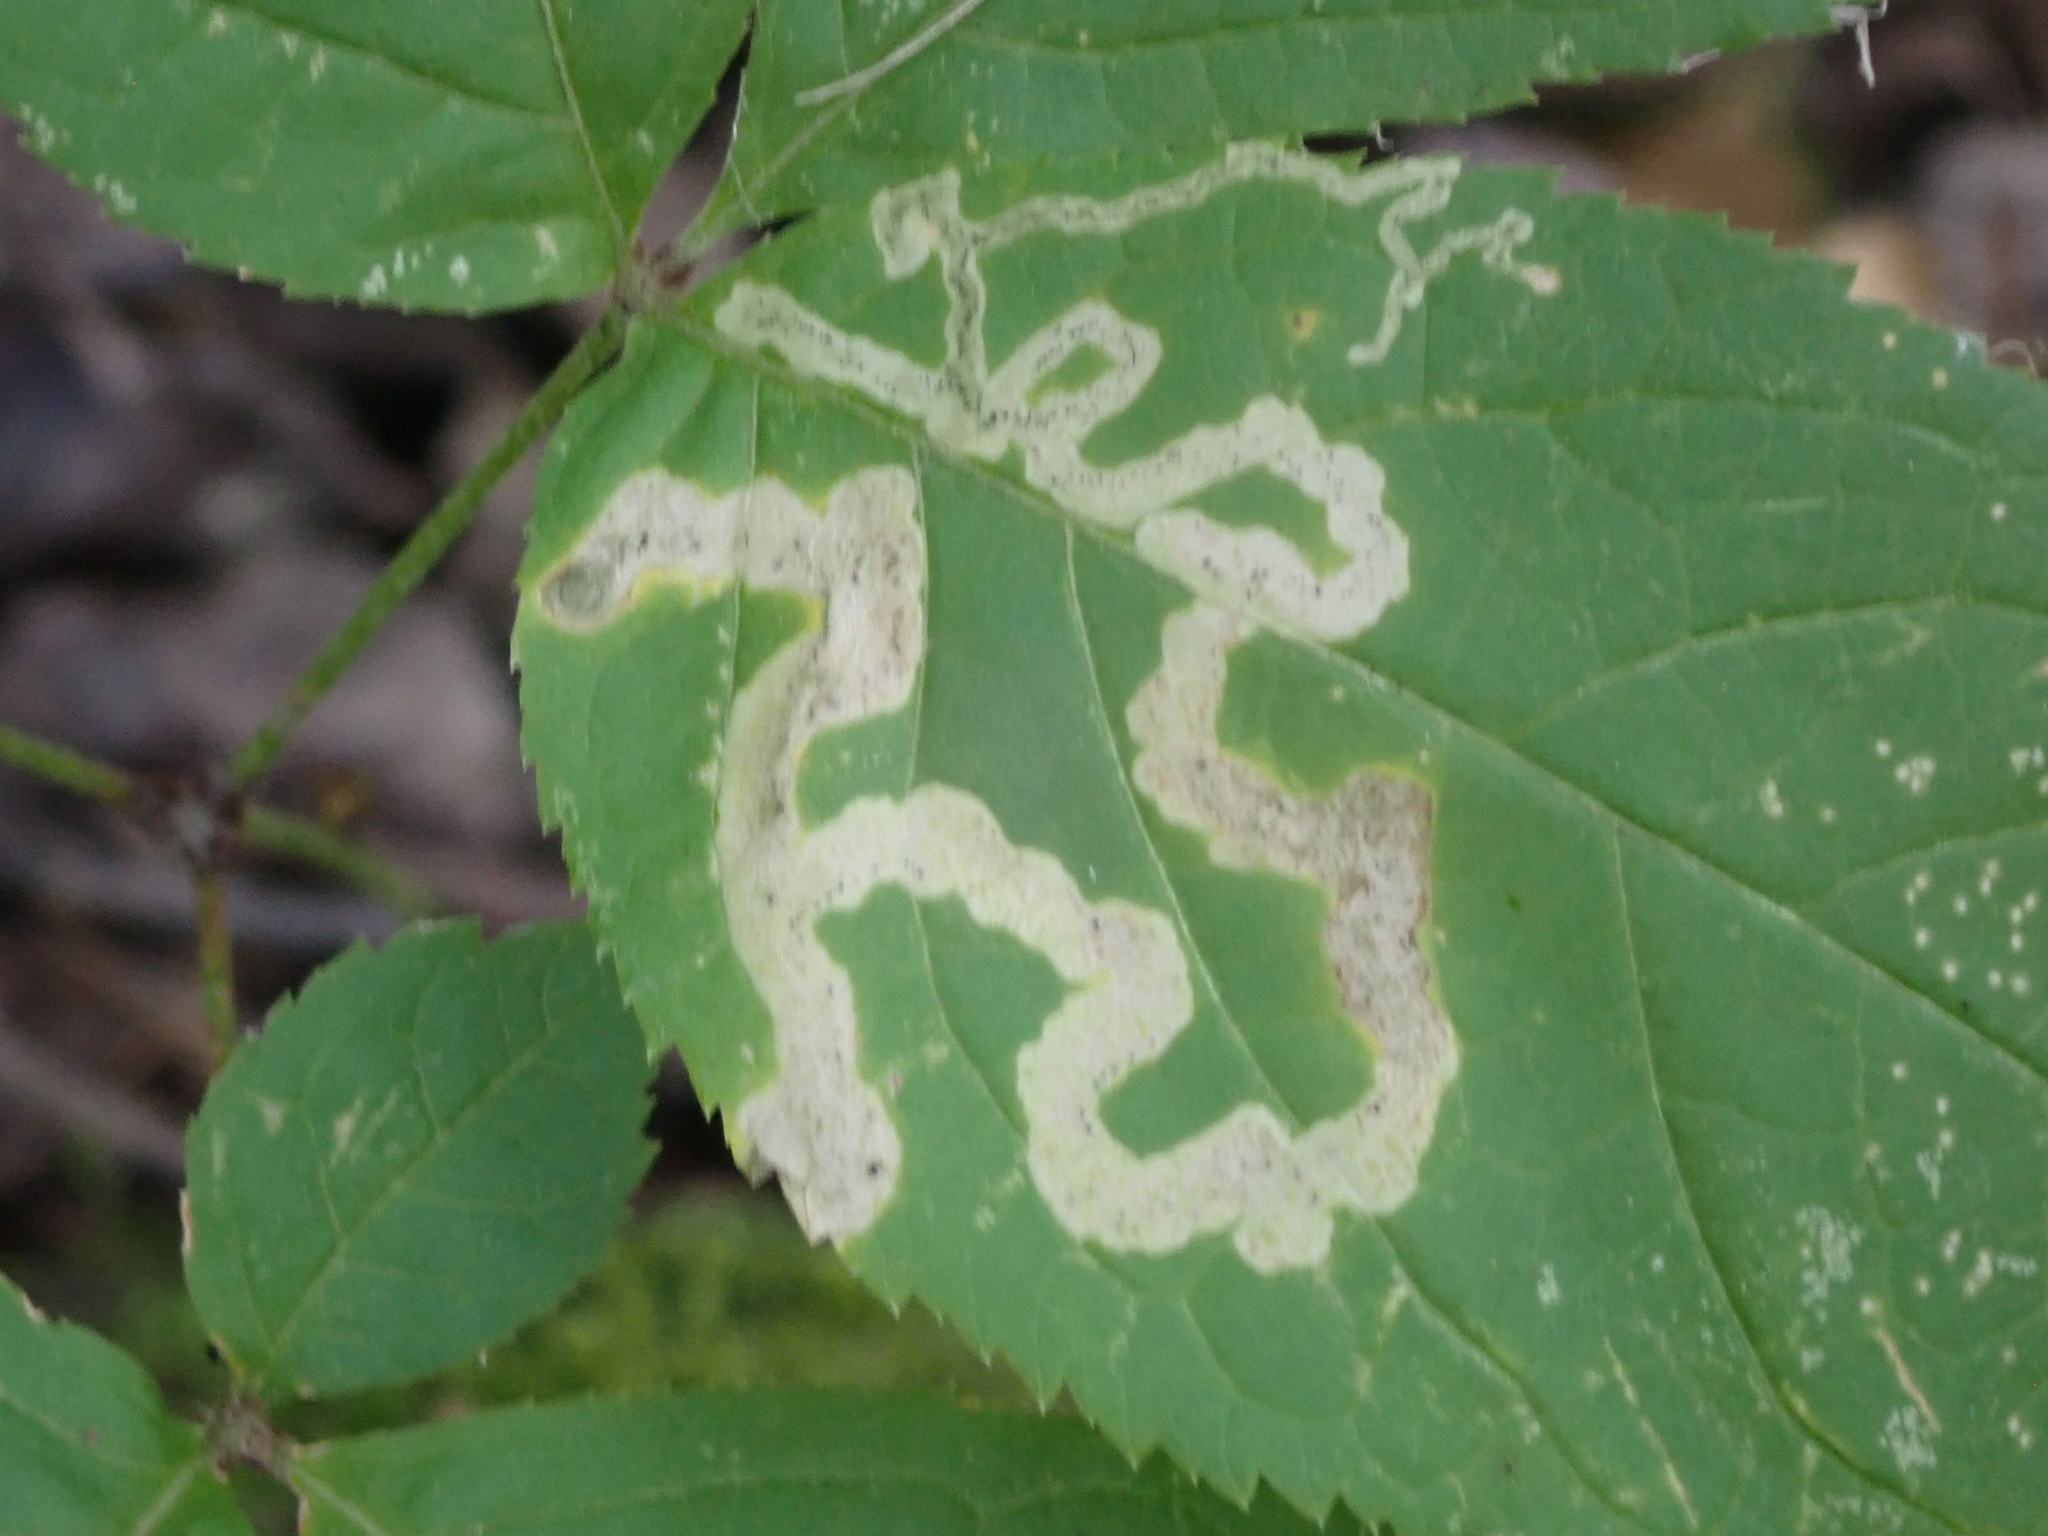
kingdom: Animalia
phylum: Arthropoda
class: Insecta
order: Diptera
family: Agromyzidae
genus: Phytomyza
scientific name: Phytomyza aralivora
